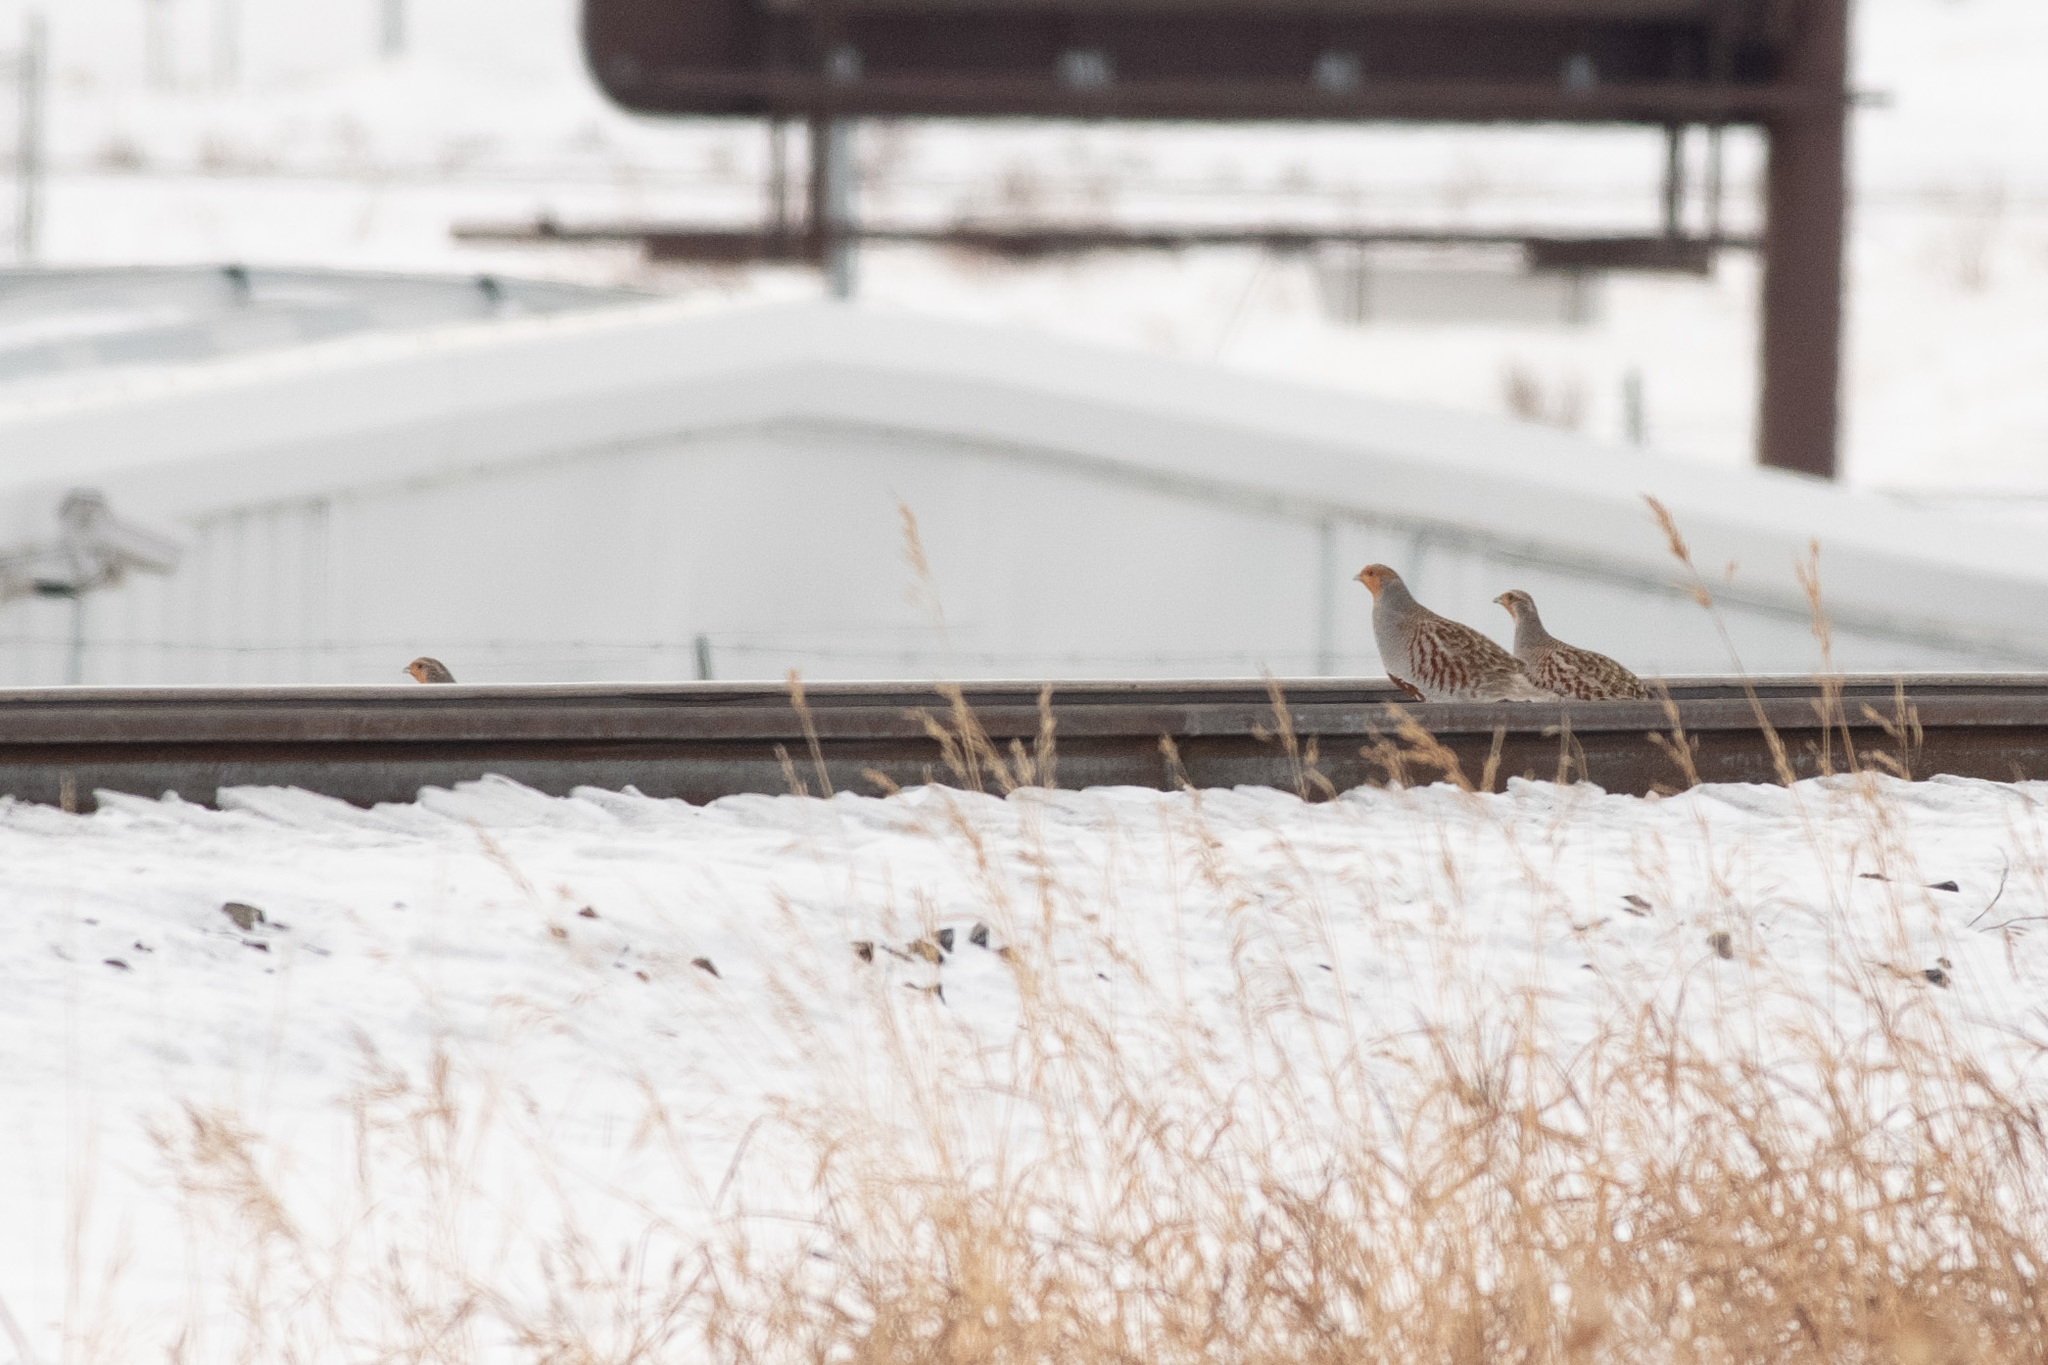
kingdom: Animalia
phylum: Chordata
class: Aves
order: Galliformes
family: Phasianidae
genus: Perdix
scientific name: Perdix perdix
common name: Grey partridge
